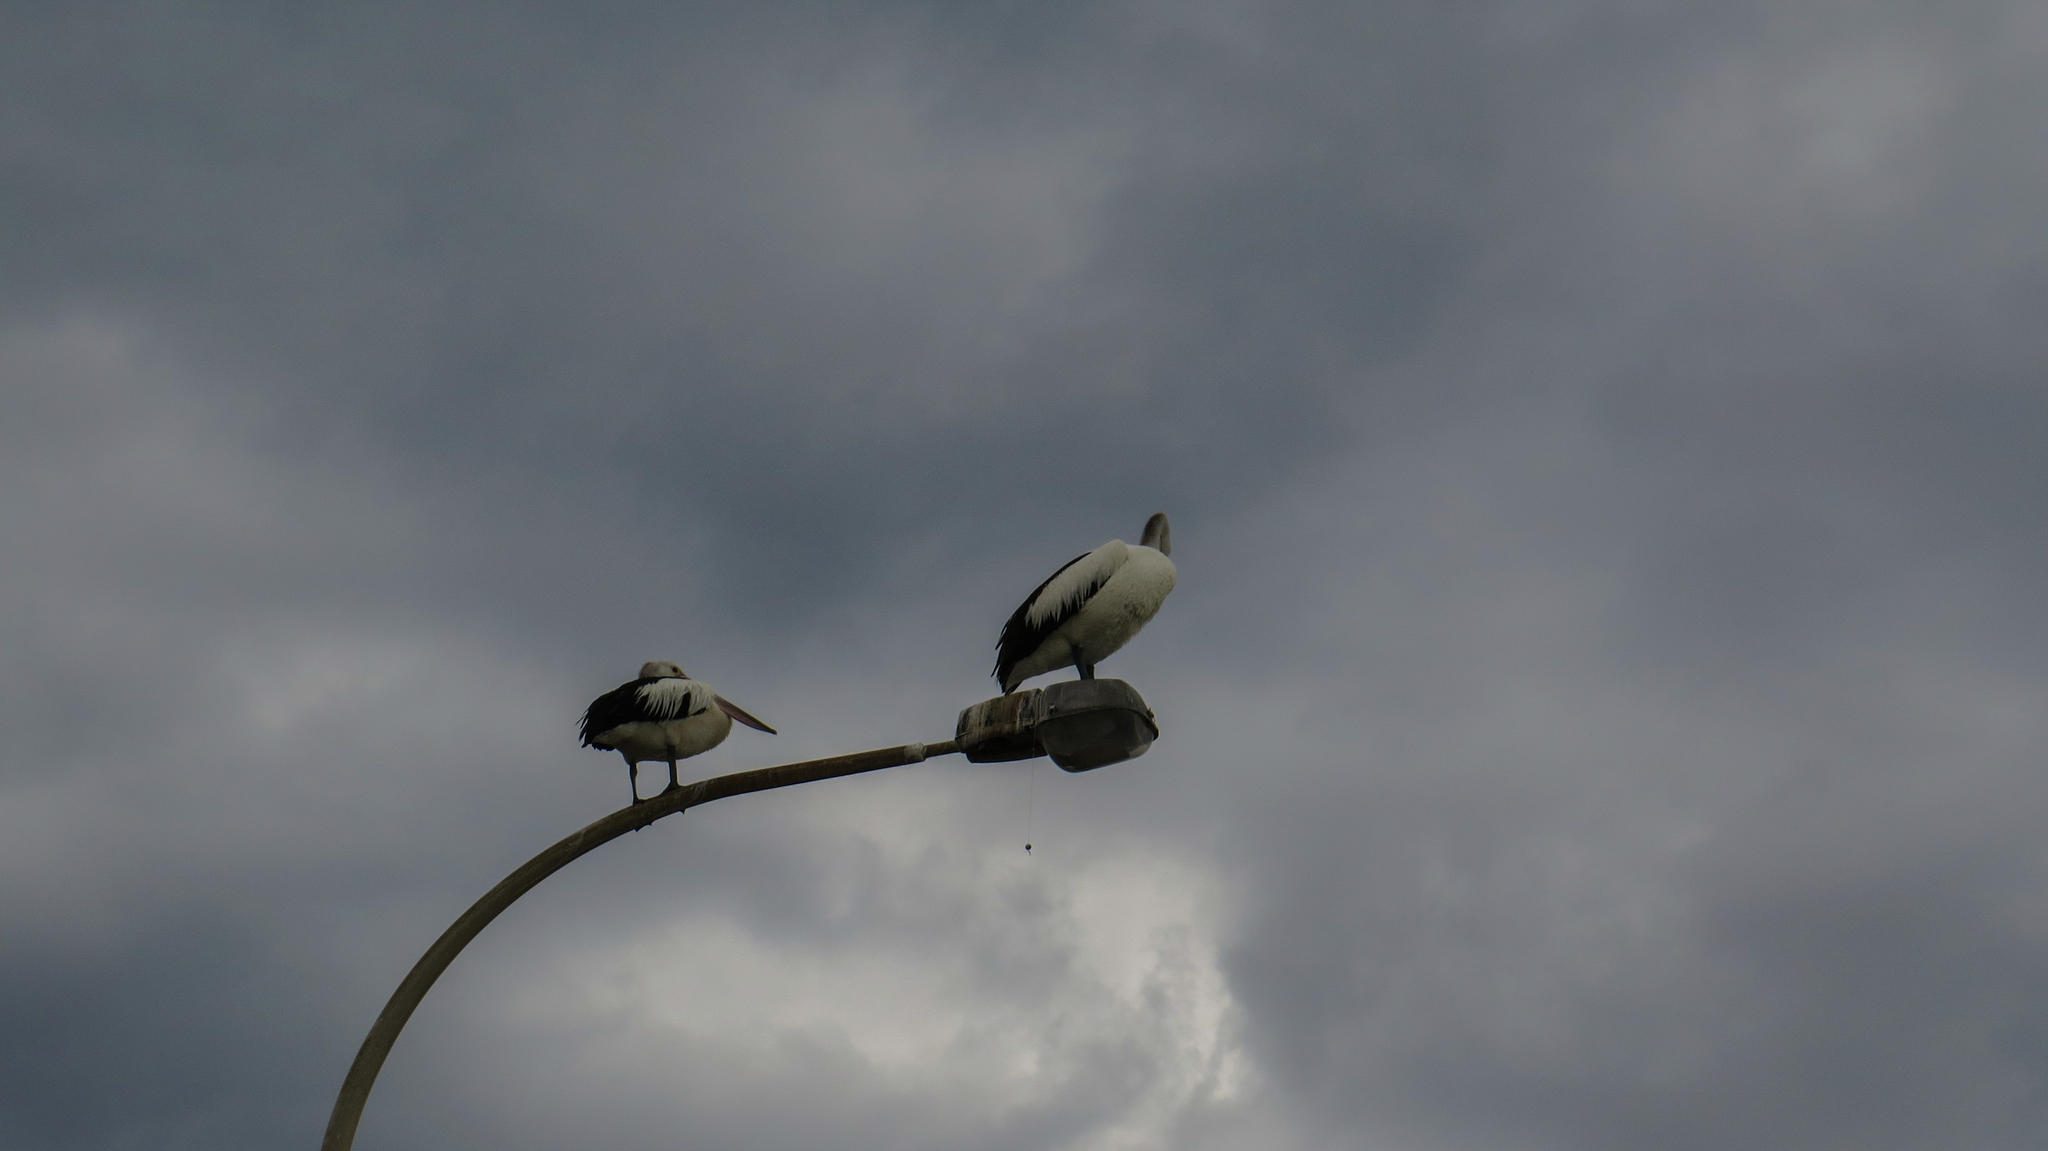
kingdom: Animalia
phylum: Chordata
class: Aves
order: Pelecaniformes
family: Pelecanidae
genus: Pelecanus
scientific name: Pelecanus conspicillatus
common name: Australian pelican
